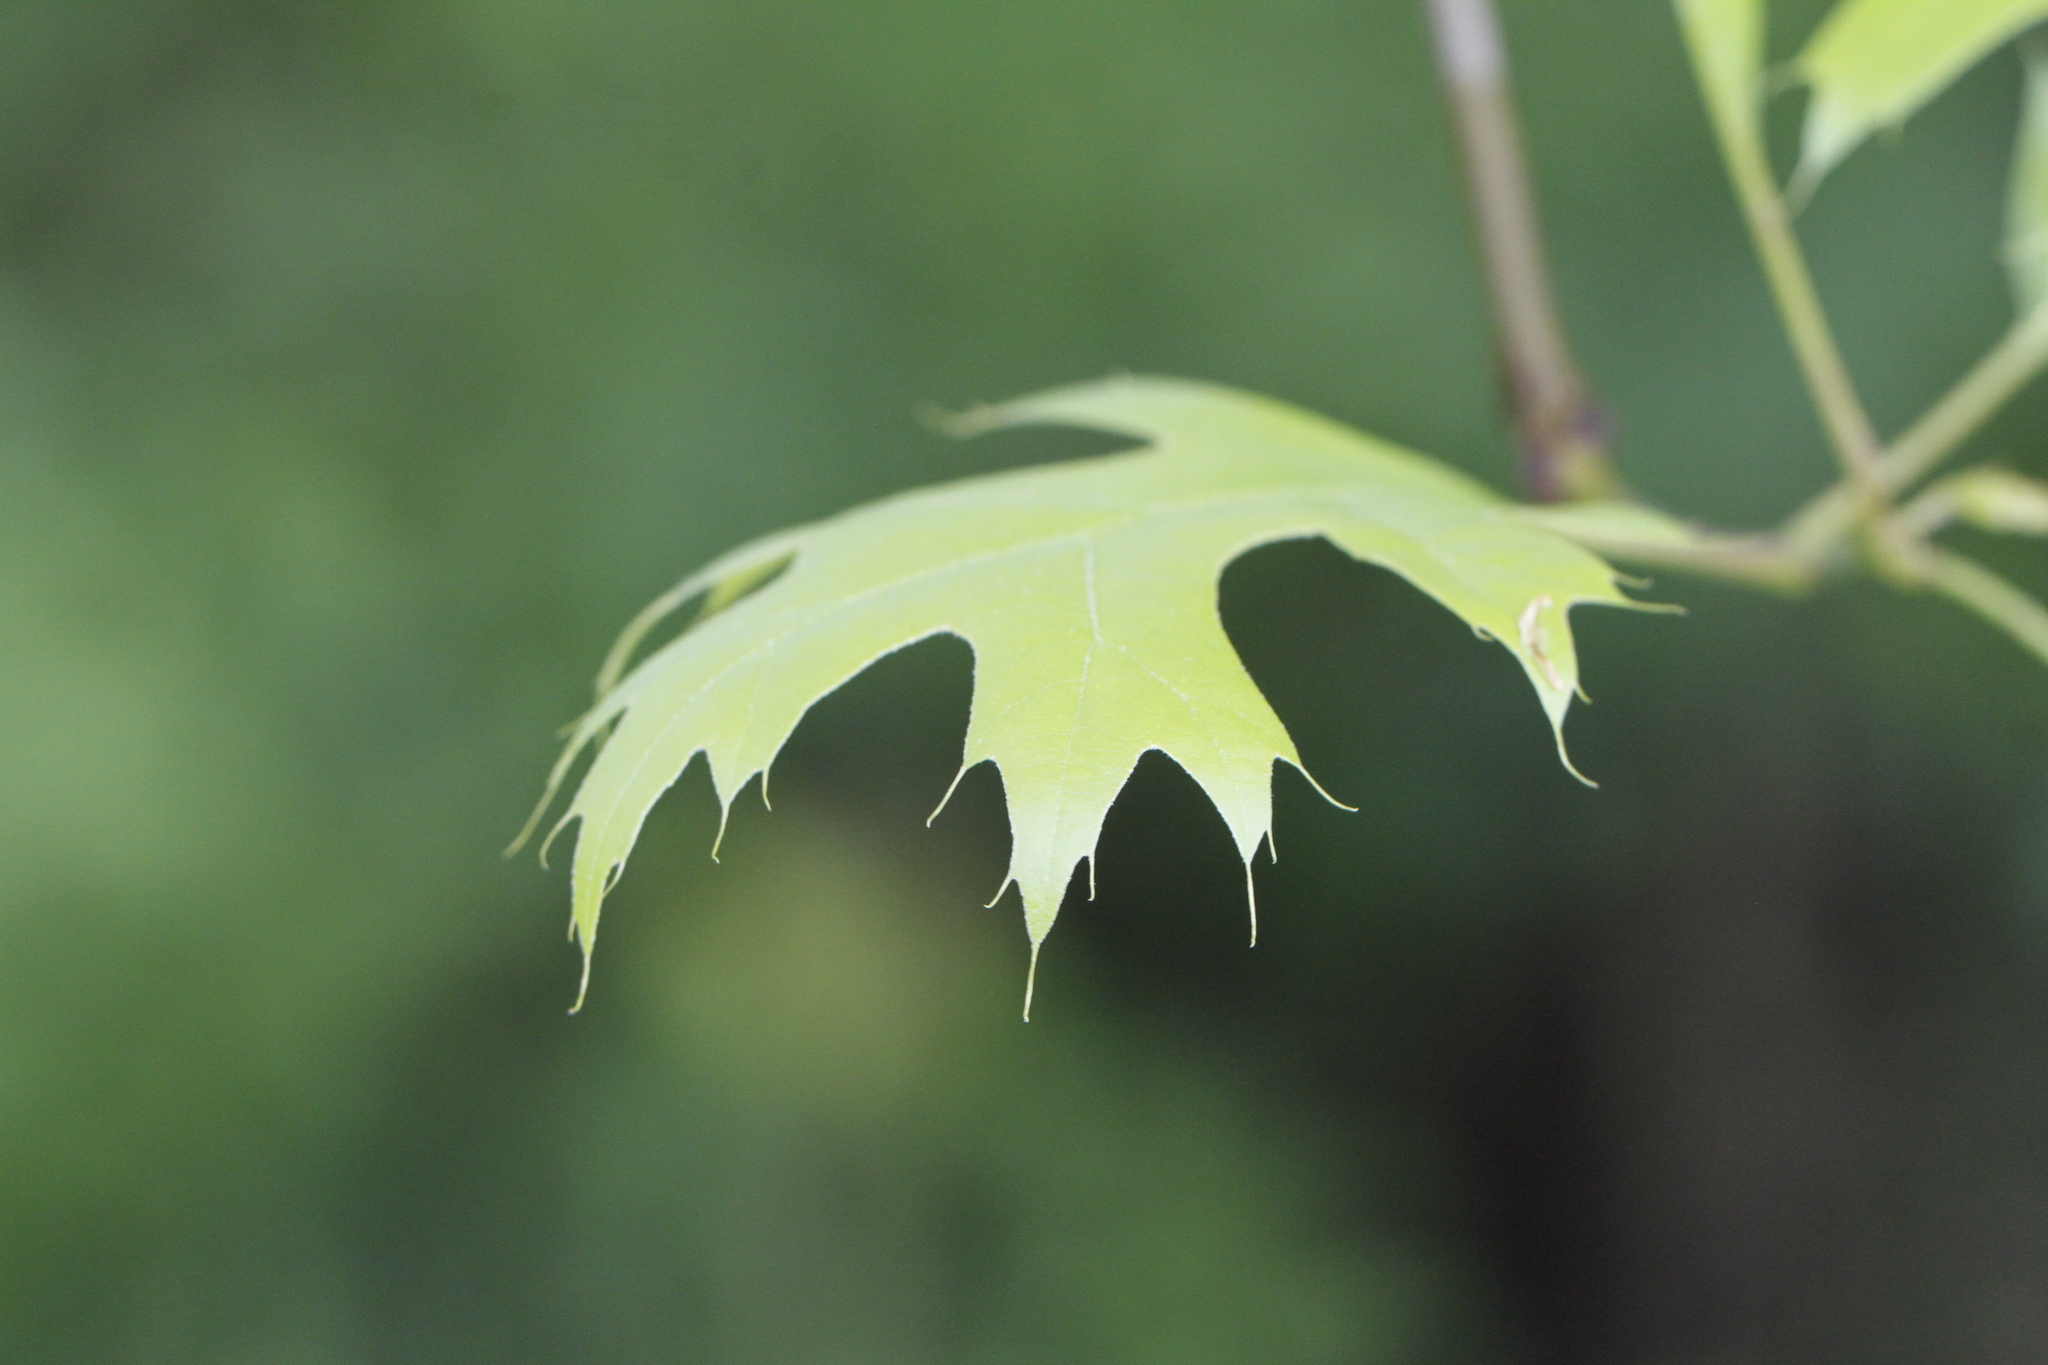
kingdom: Plantae
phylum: Tracheophyta
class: Magnoliopsida
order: Fagales
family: Fagaceae
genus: Quercus
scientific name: Quercus falcata
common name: Southern red oak
